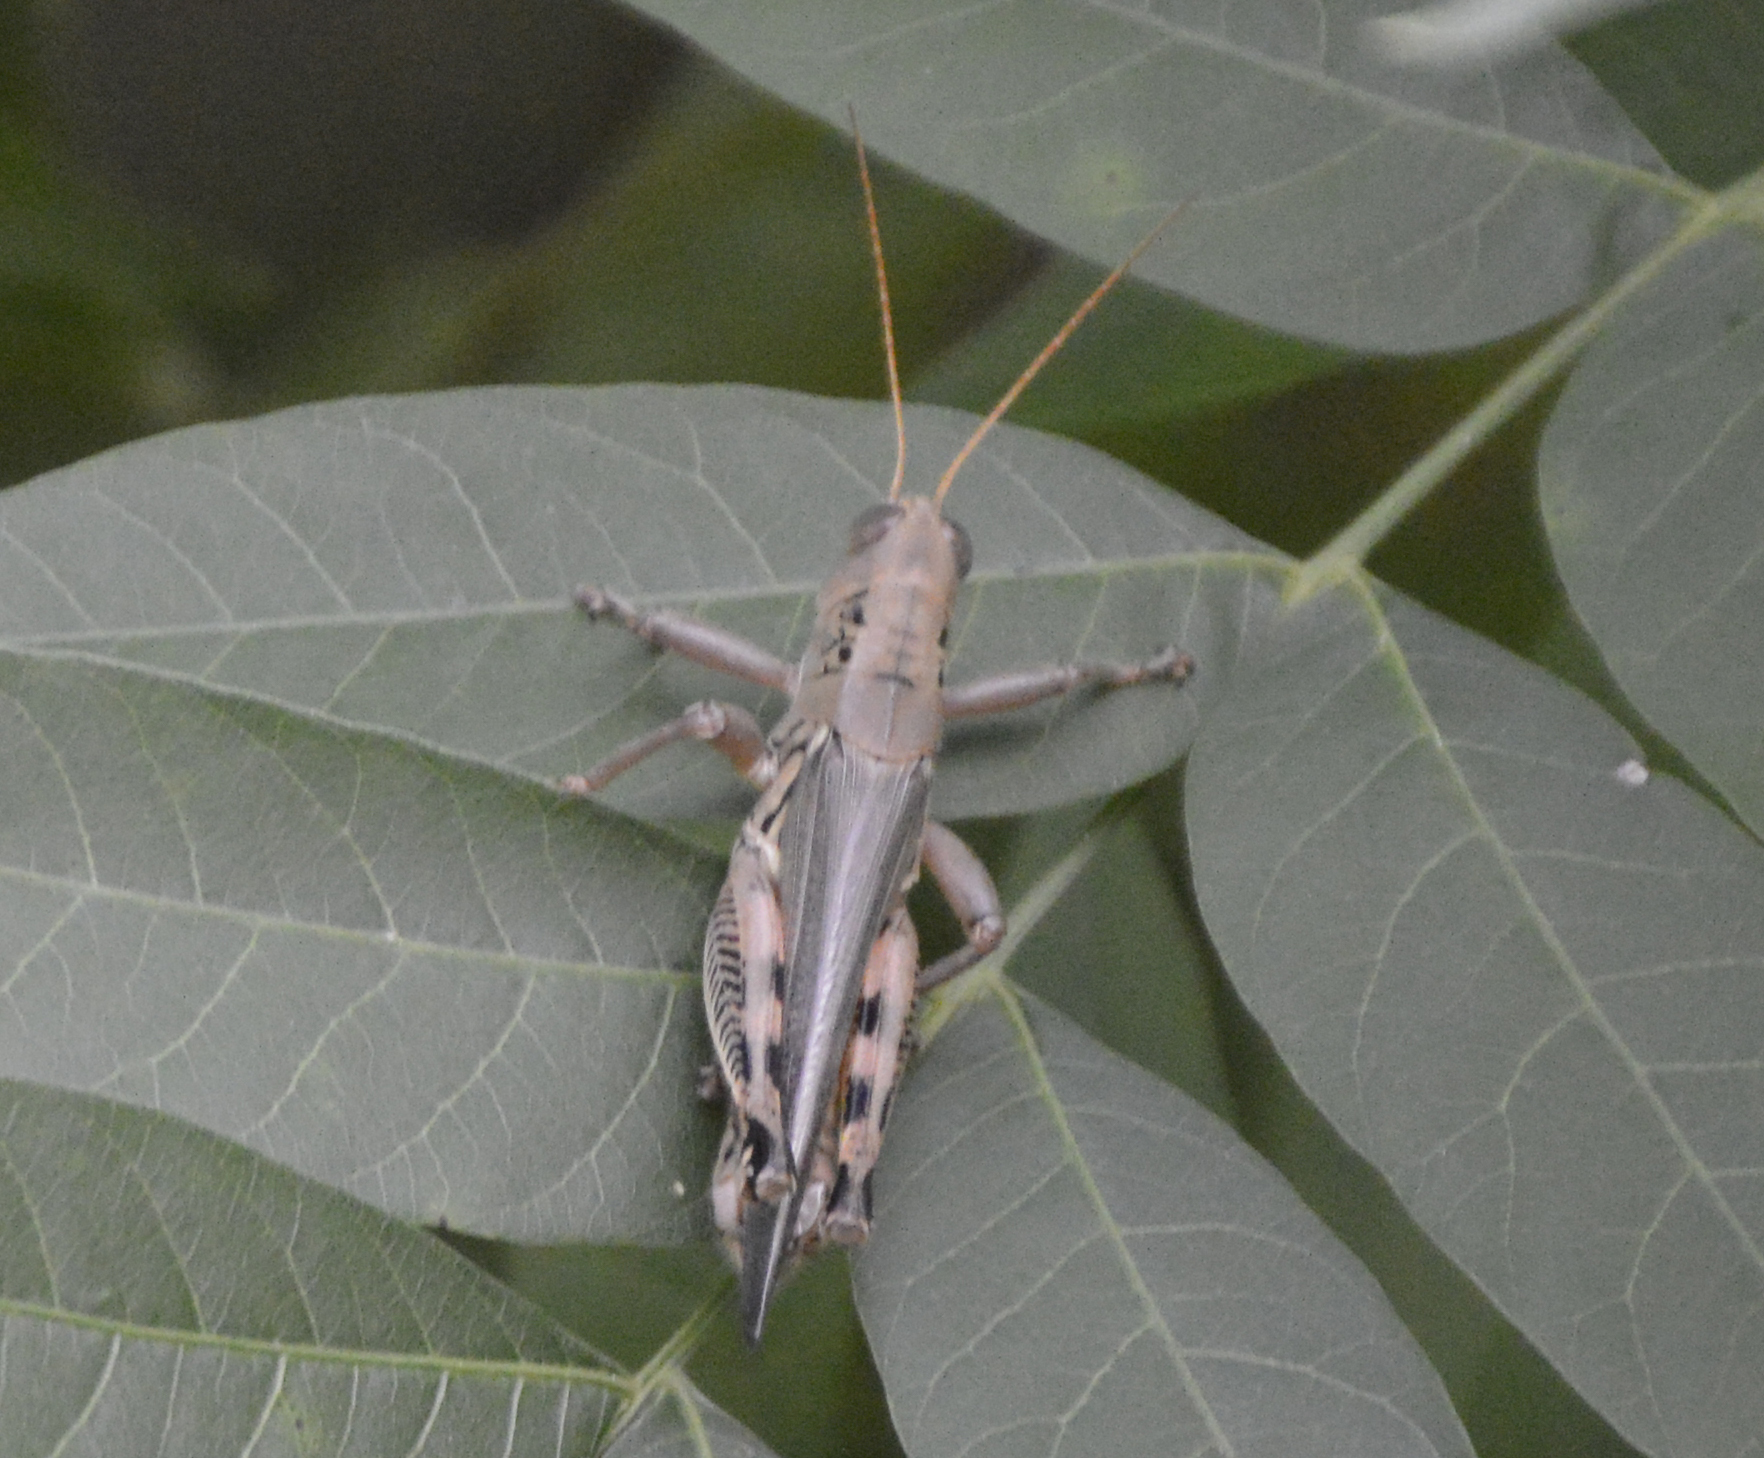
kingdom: Animalia
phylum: Arthropoda
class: Insecta
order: Orthoptera
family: Acrididae
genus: Melanoplus
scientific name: Melanoplus differentialis
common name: Differential grasshopper
